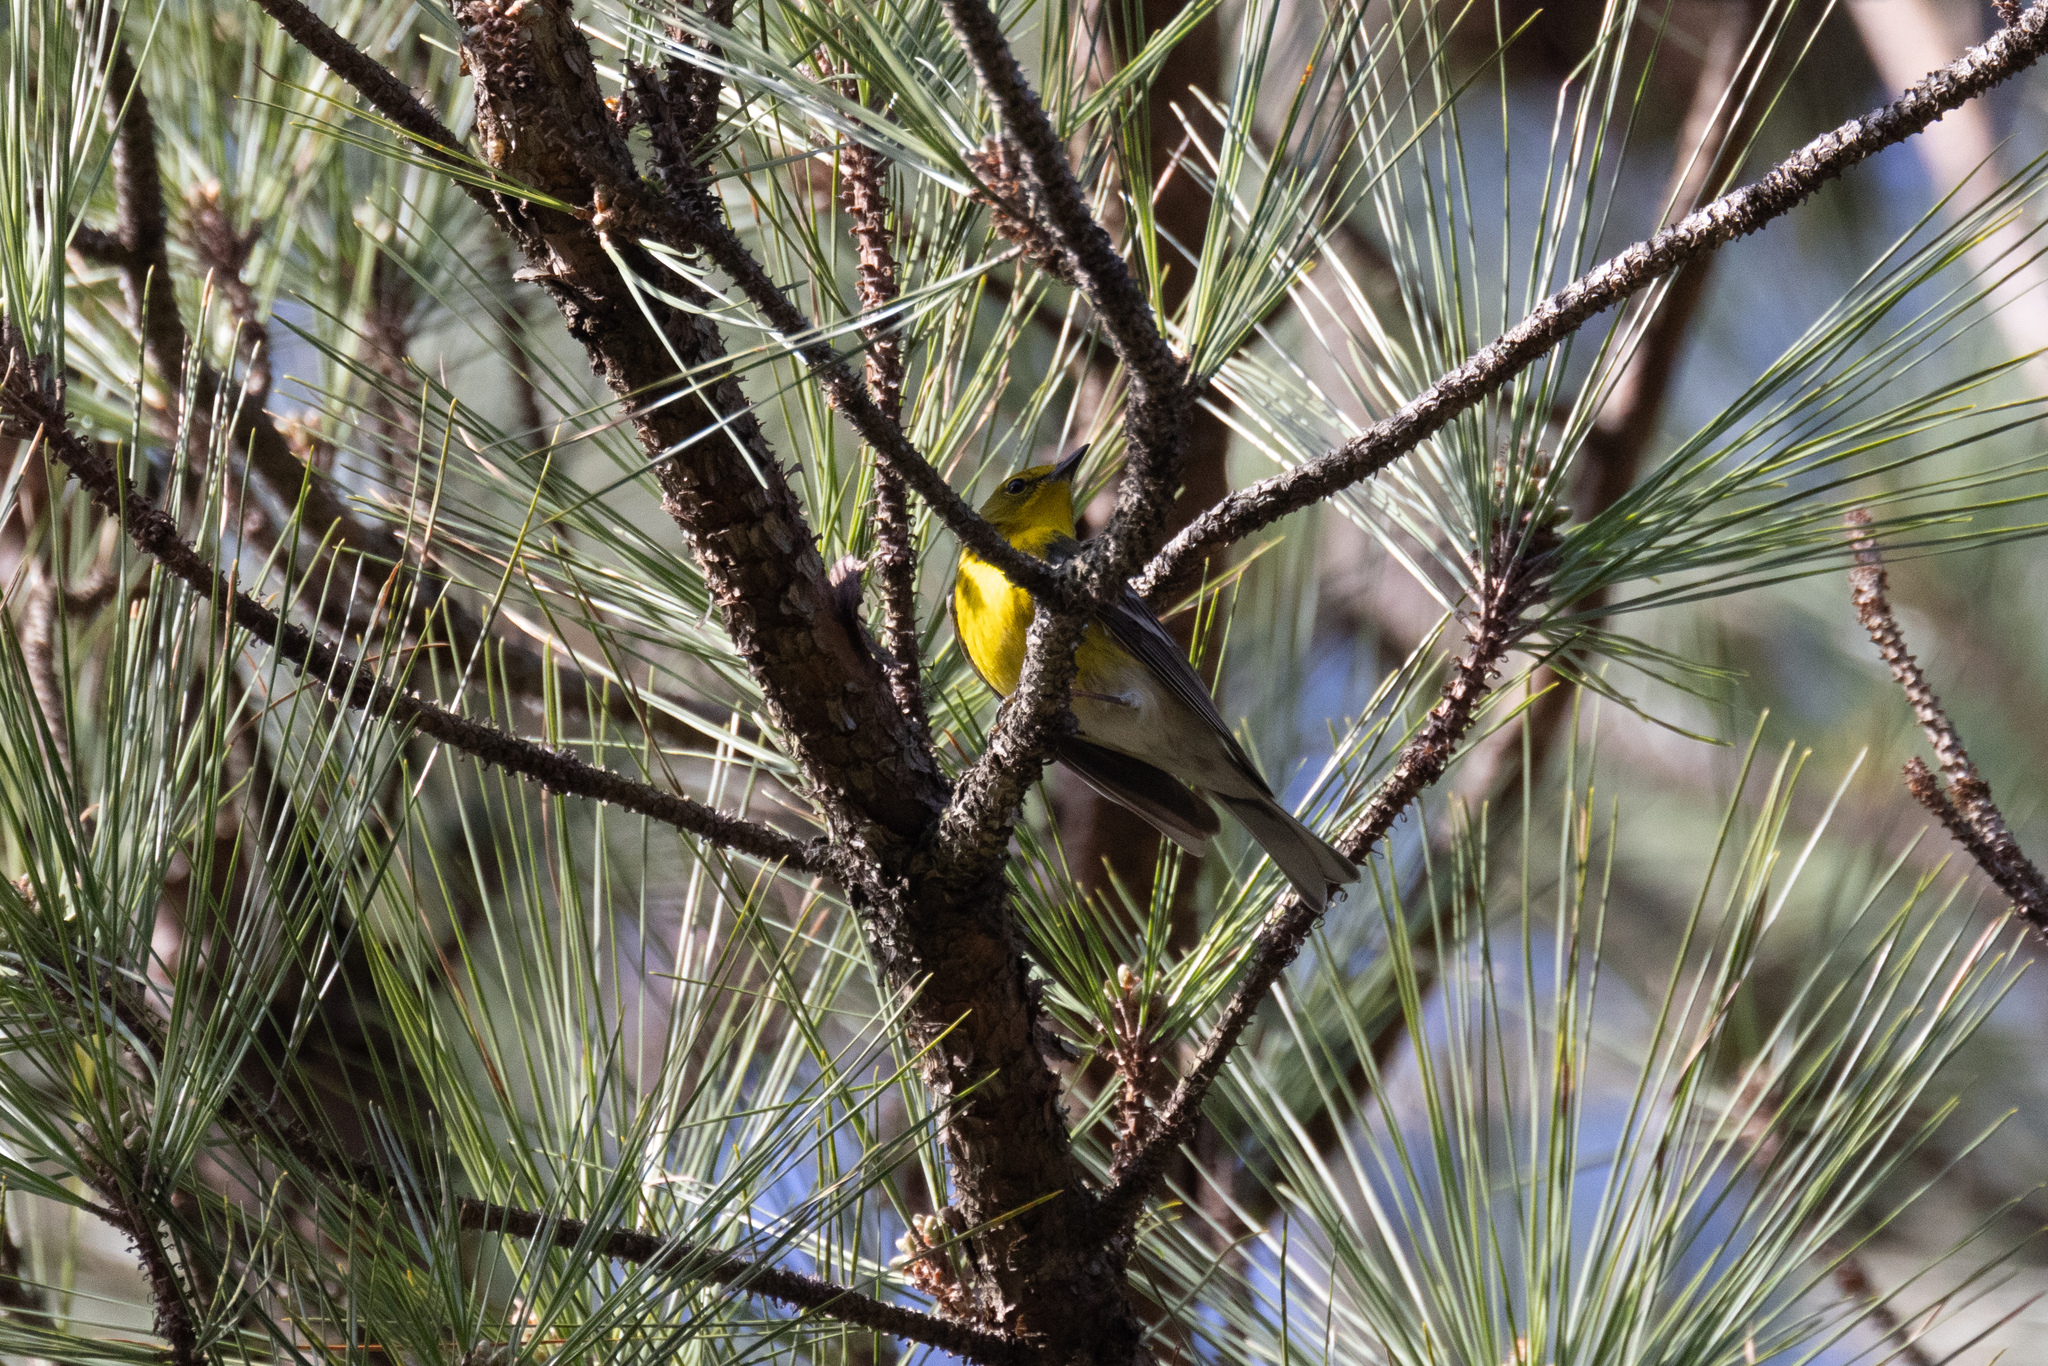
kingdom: Animalia
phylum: Chordata
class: Aves
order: Passeriformes
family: Parulidae
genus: Setophaga
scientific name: Setophaga pinus
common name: Pine warbler
